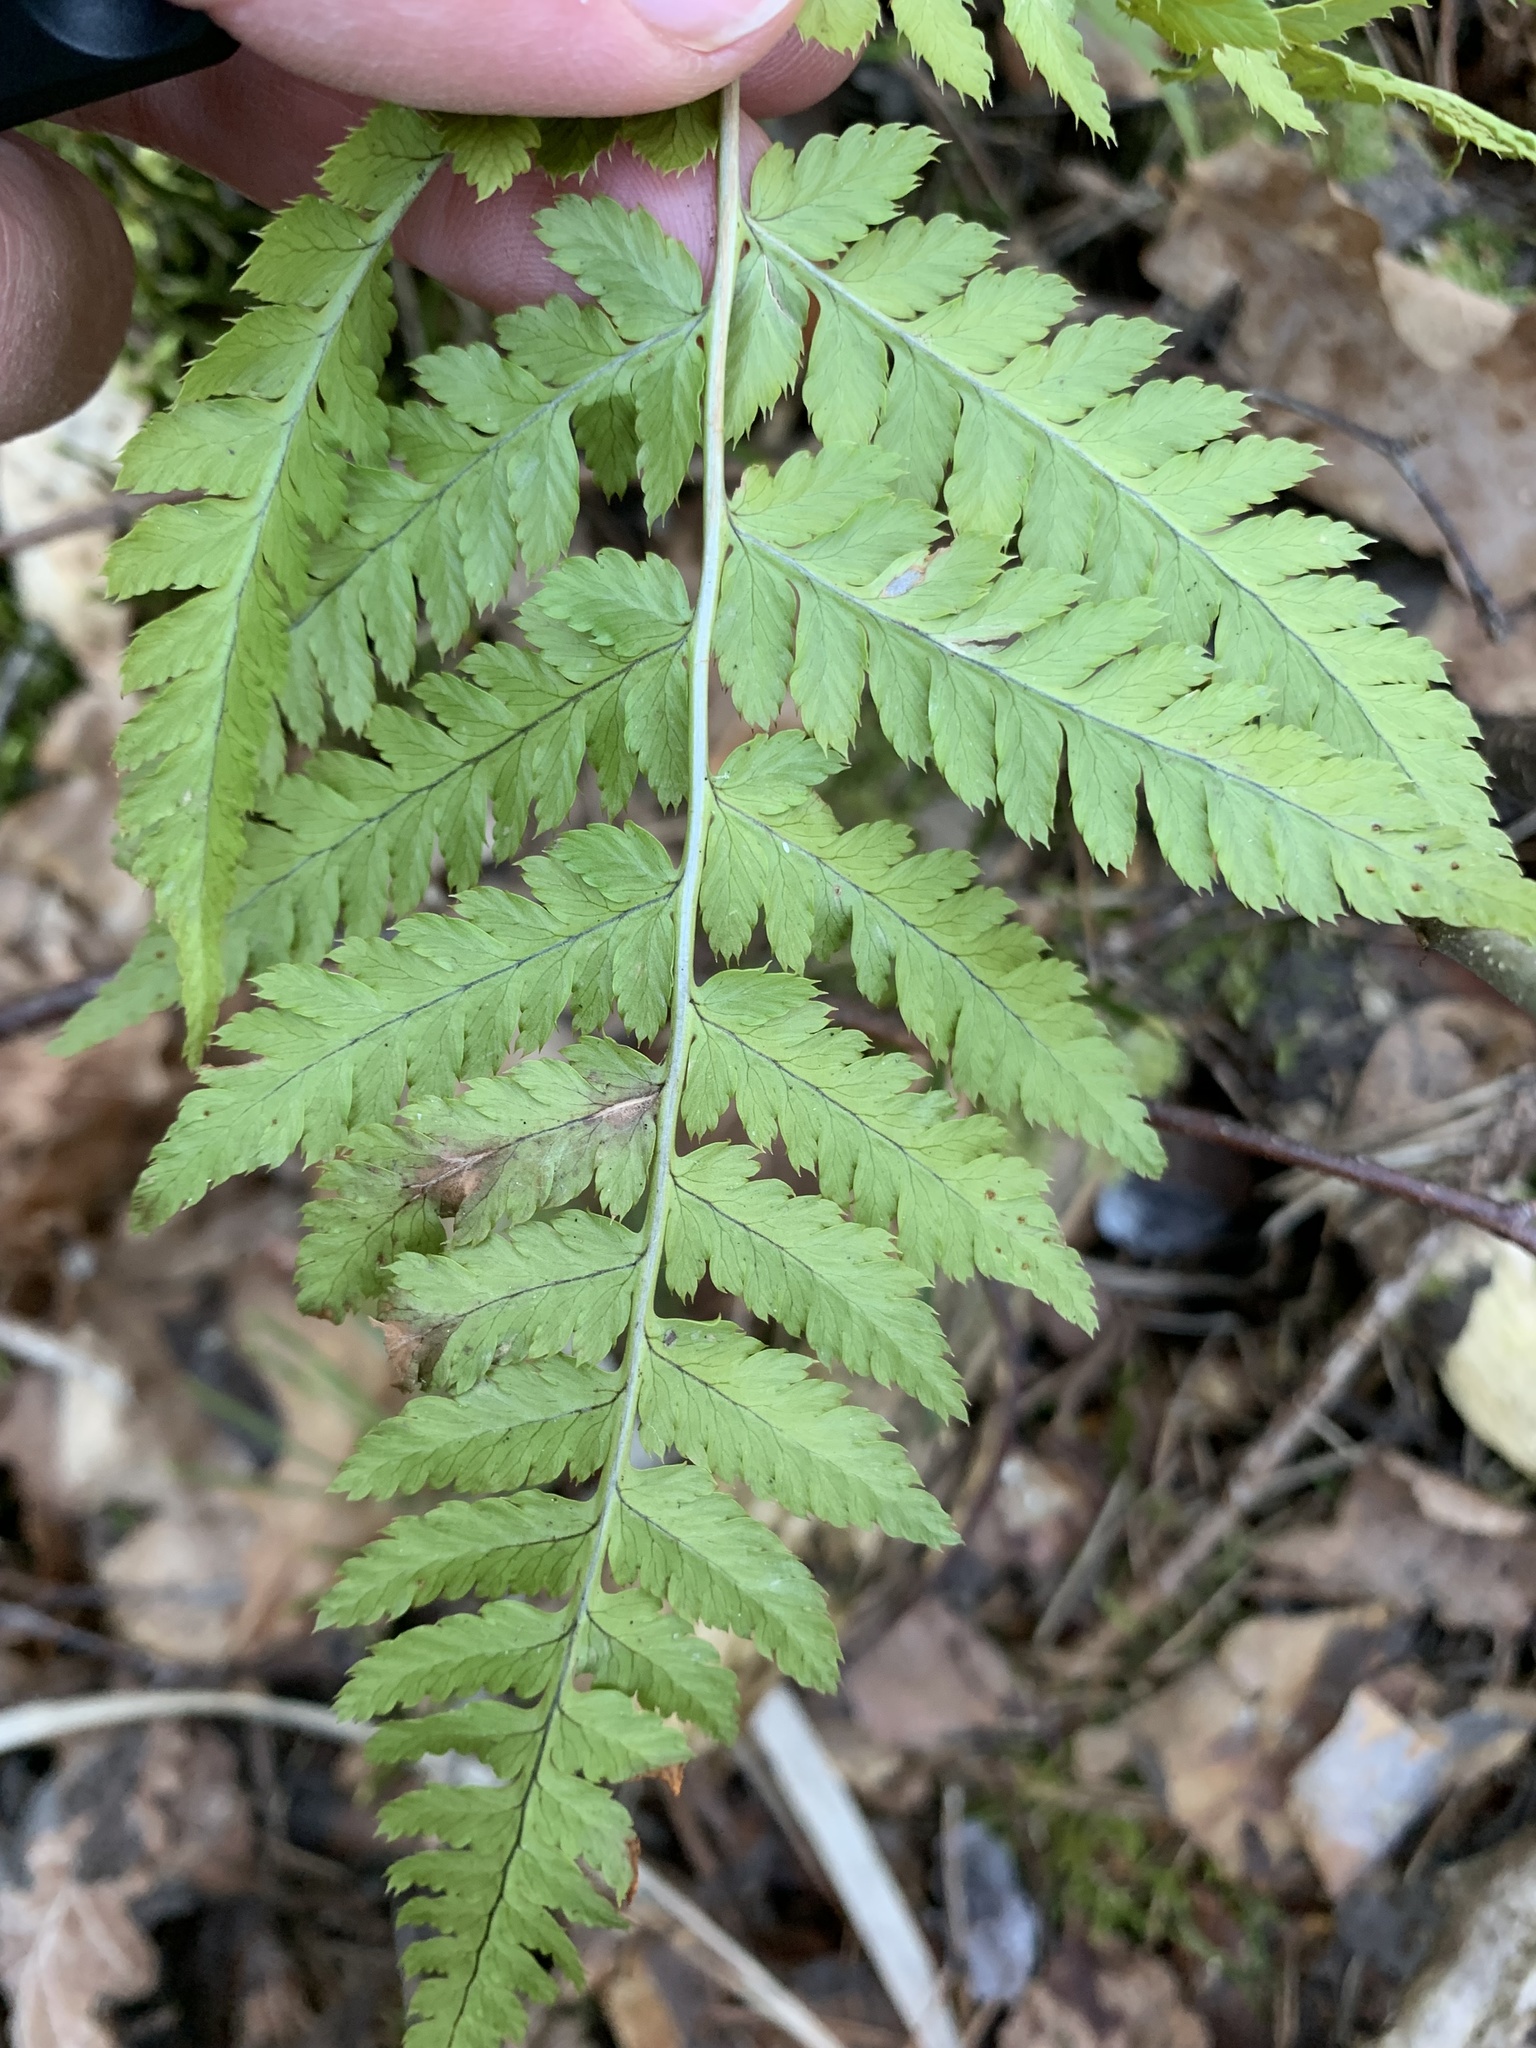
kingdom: Plantae
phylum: Tracheophyta
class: Polypodiopsida
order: Polypodiales
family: Dryopteridaceae
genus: Dryopteris
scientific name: Dryopteris carthusiana
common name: Narrow buckler-fern
